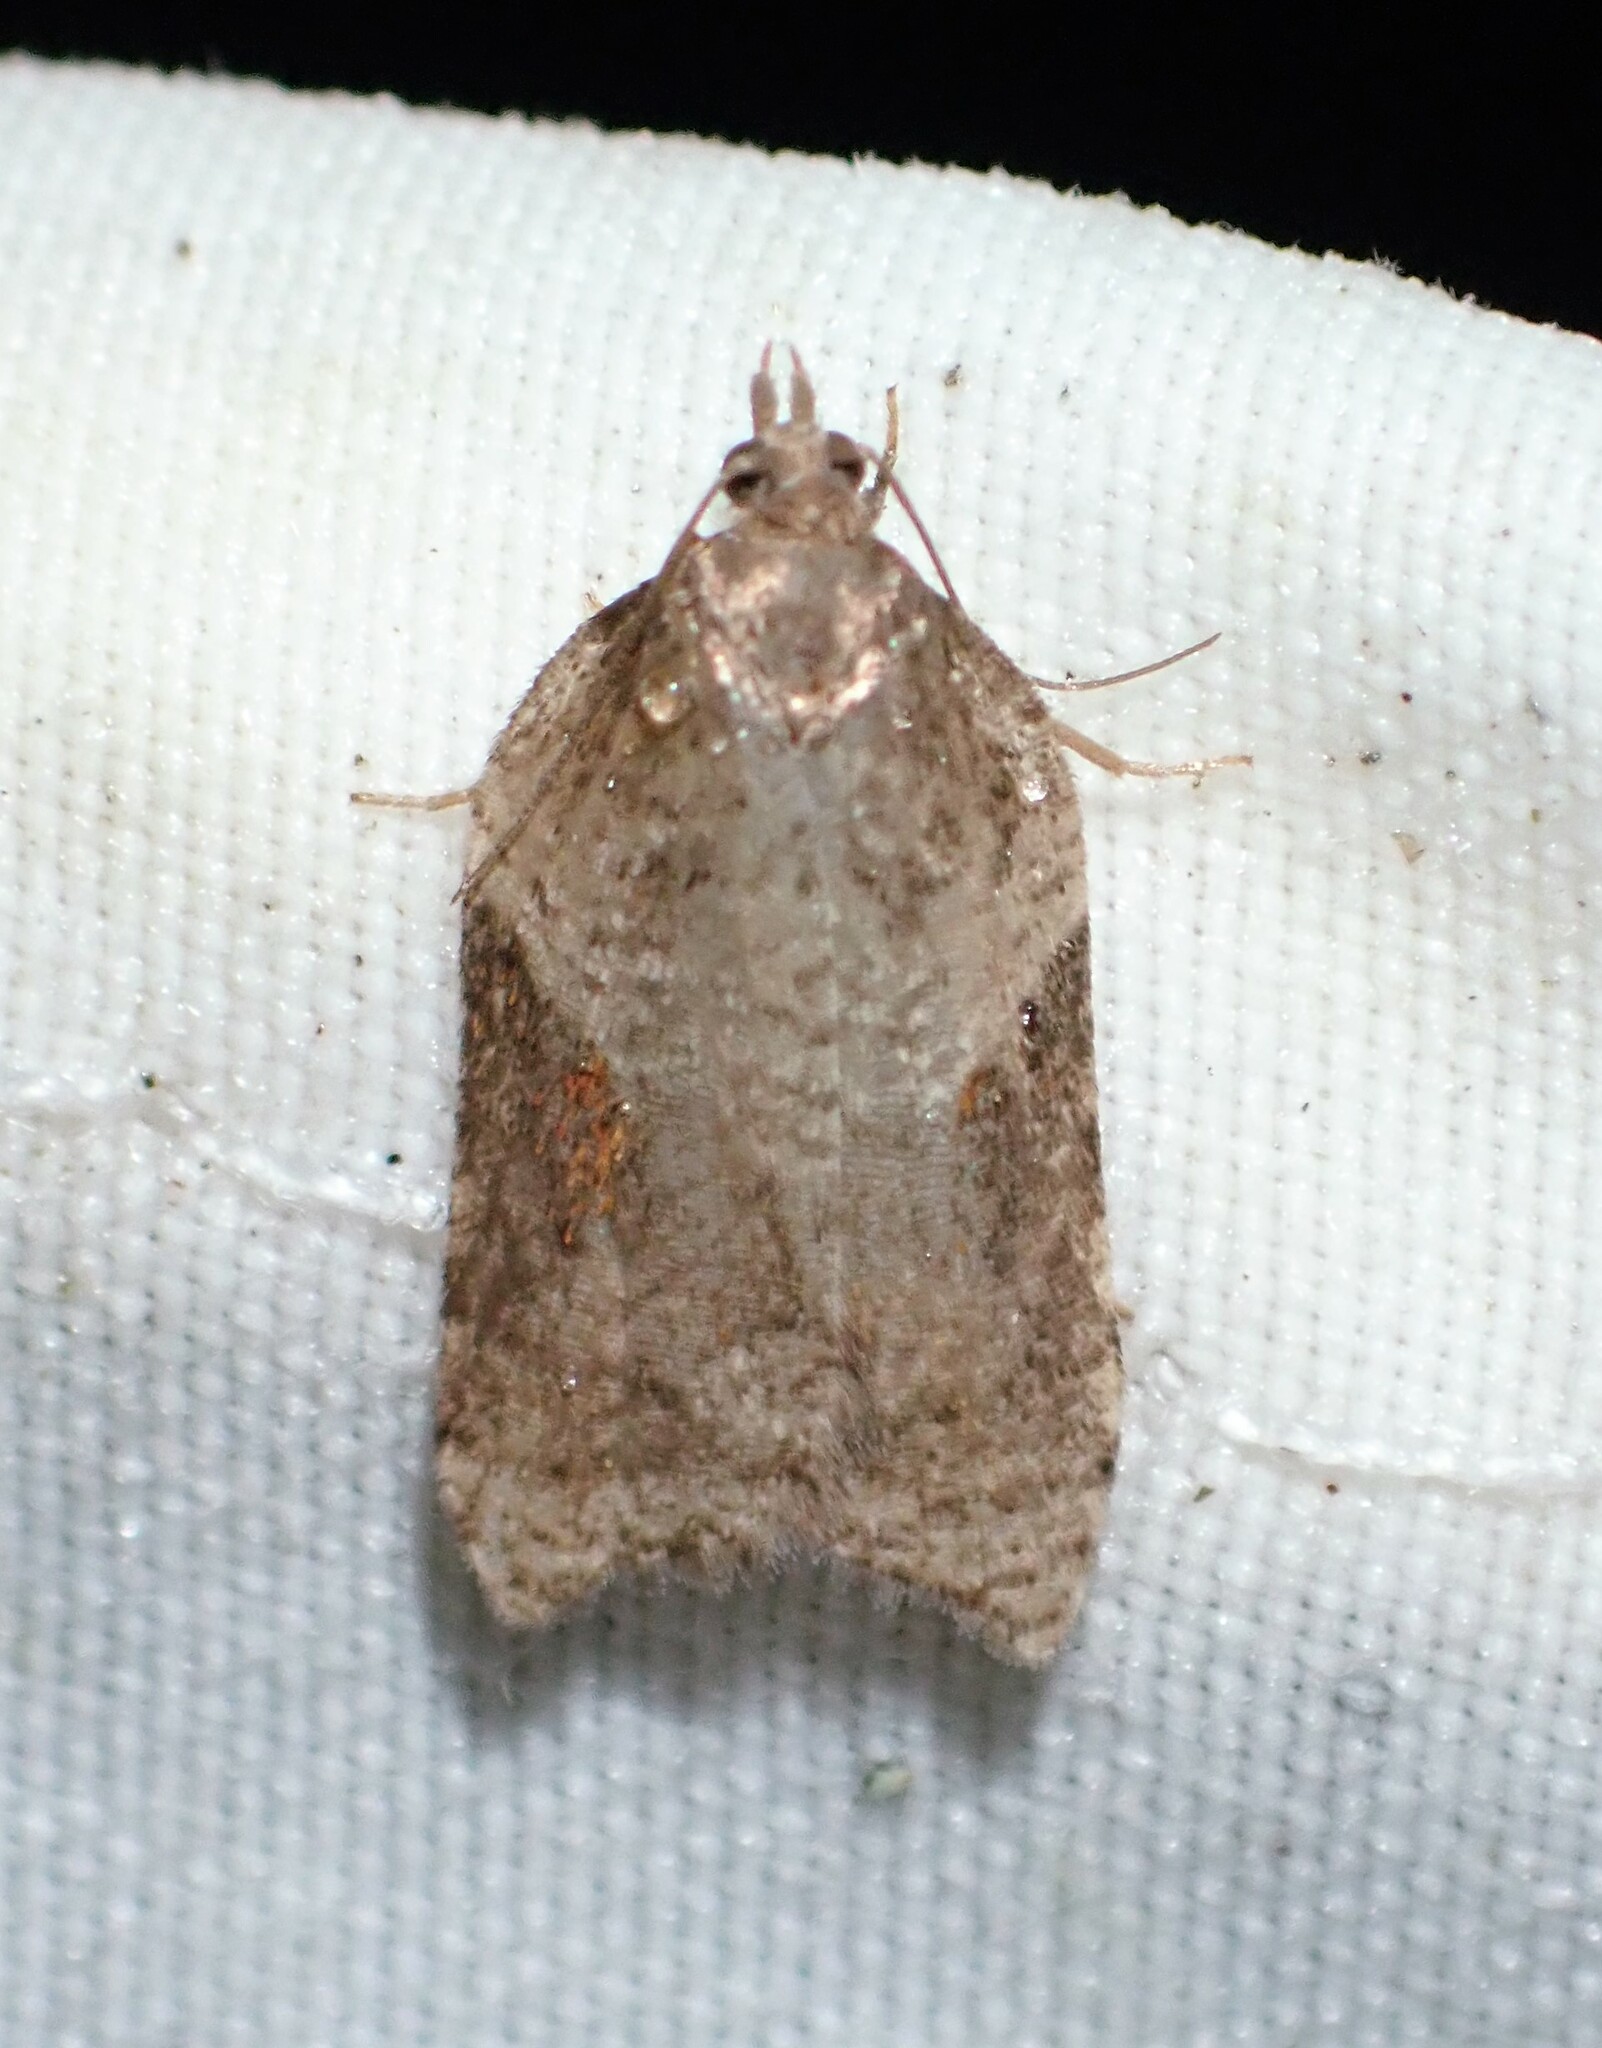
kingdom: Animalia
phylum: Arthropoda
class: Insecta
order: Lepidoptera
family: Tortricidae
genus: Acleris
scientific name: Acleris macdunnoughi
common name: Macdunnough's acleris
